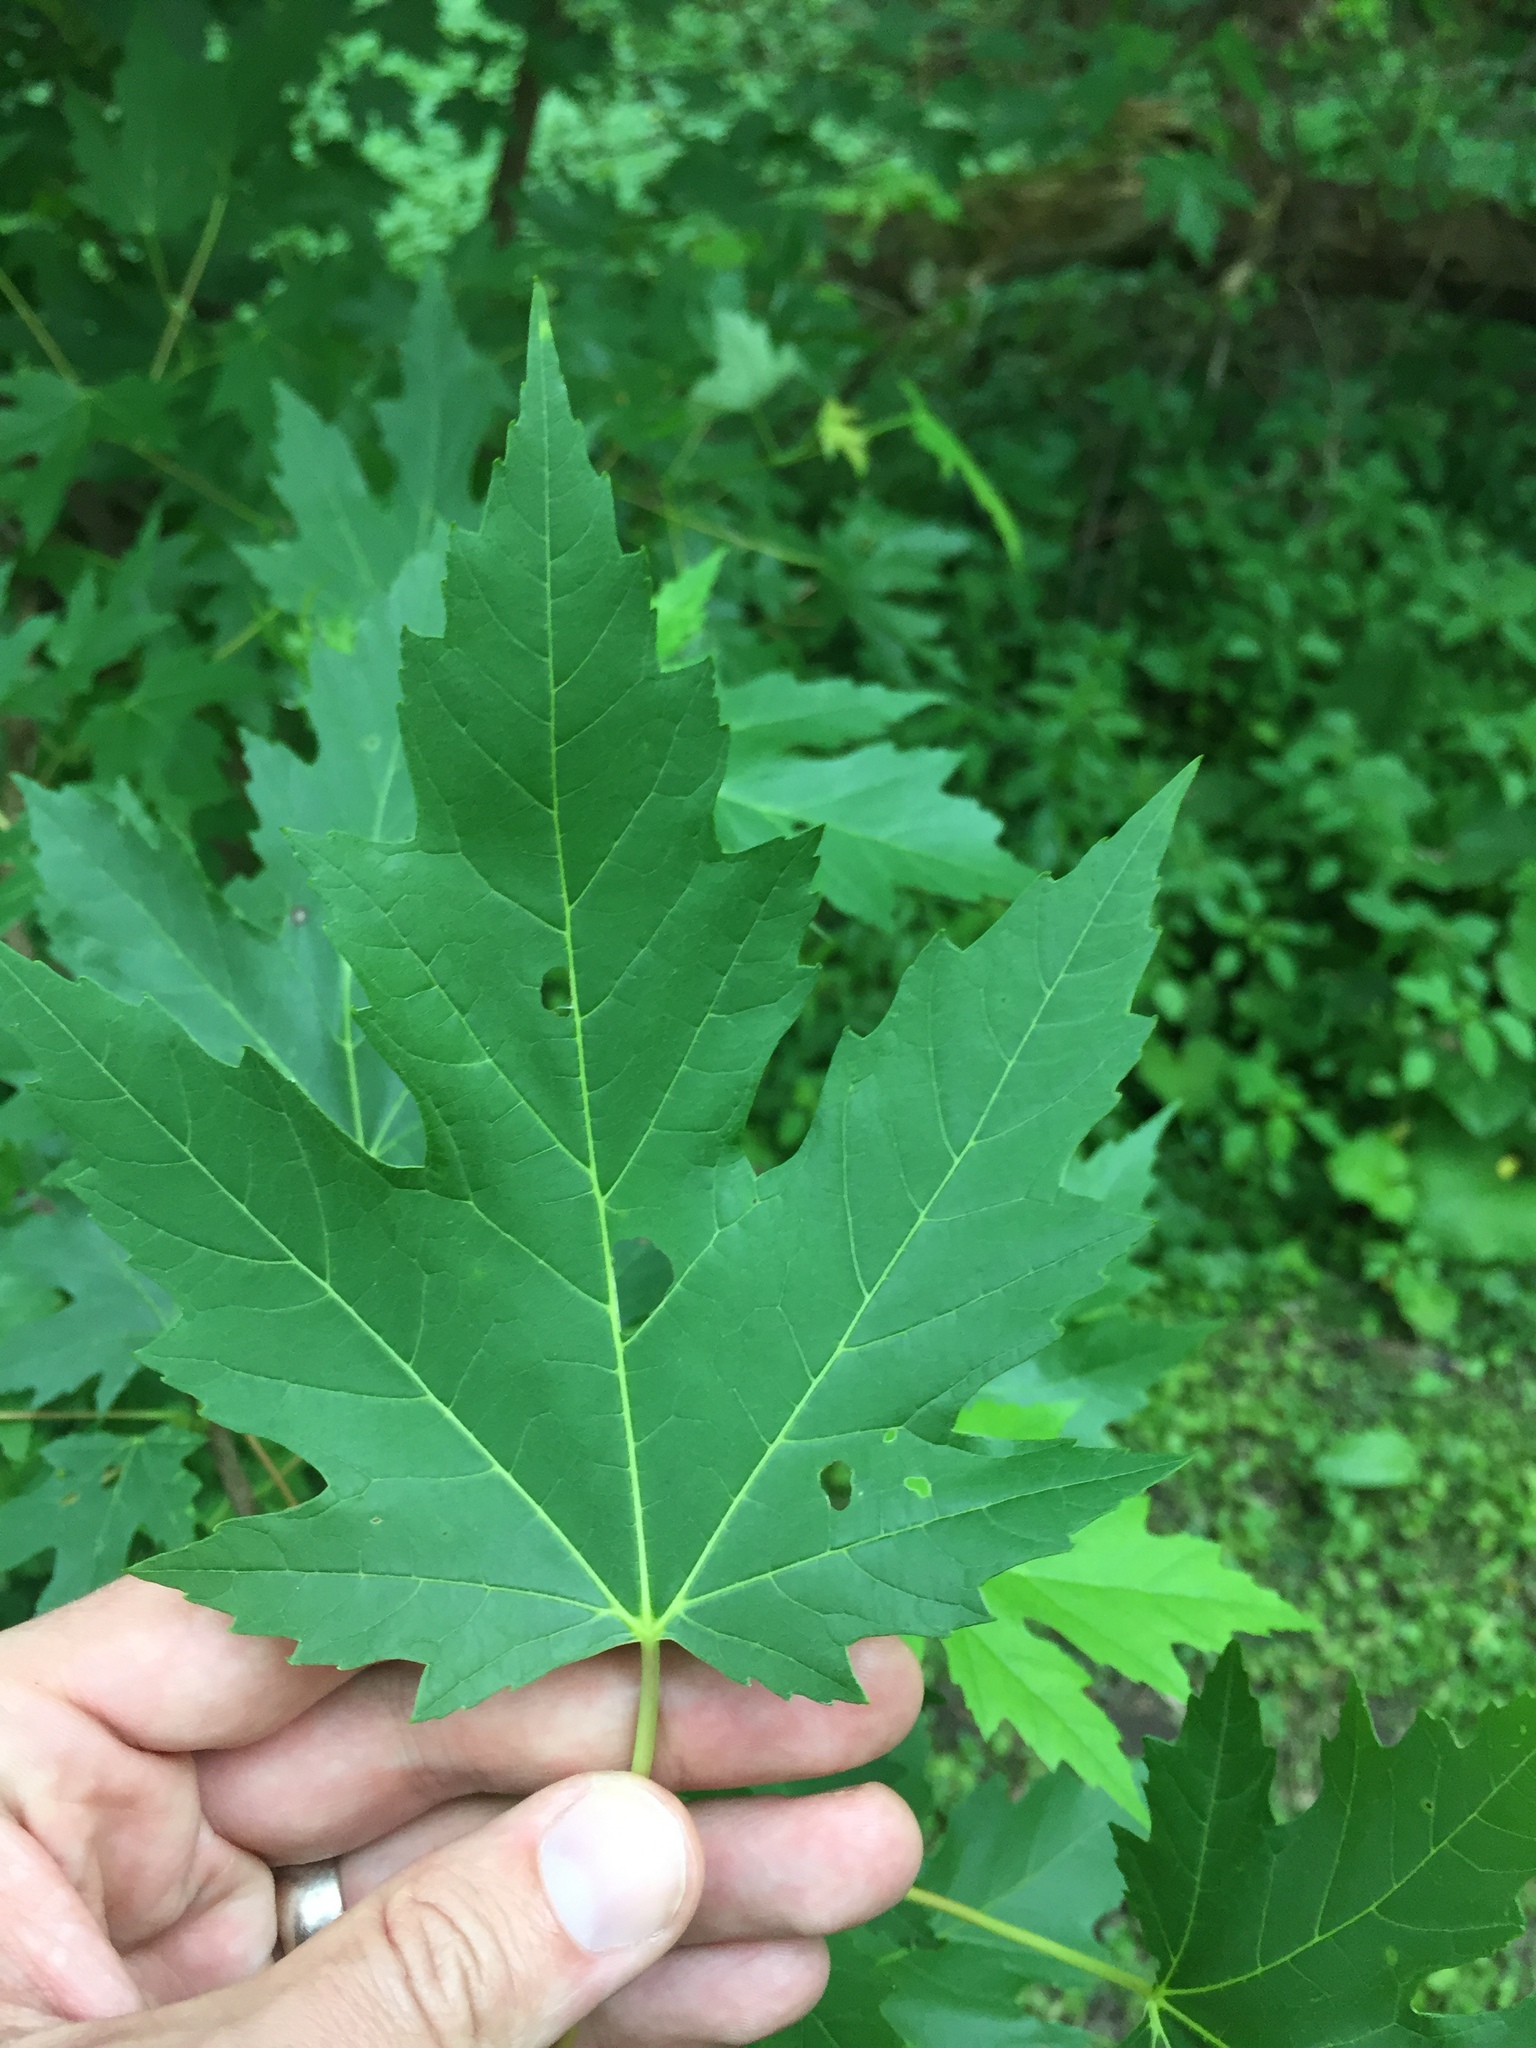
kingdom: Plantae
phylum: Tracheophyta
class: Magnoliopsida
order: Sapindales
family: Sapindaceae
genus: Acer
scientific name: Acer saccharinum
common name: Silver maple
